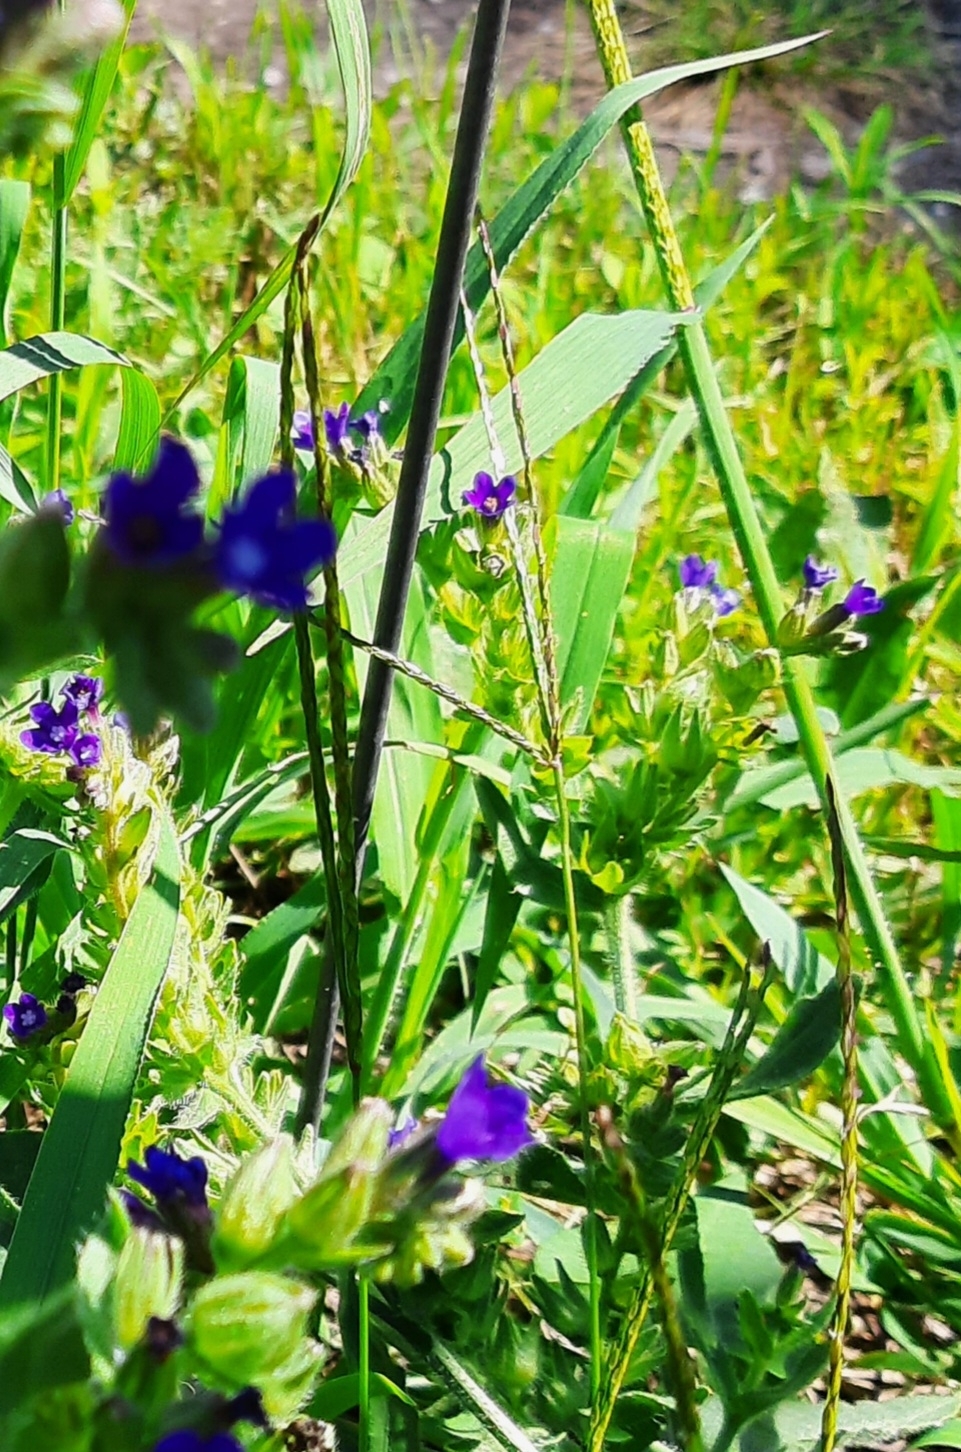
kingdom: Plantae
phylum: Tracheophyta
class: Magnoliopsida
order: Boraginales
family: Boraginaceae
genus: Anchusa
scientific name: Anchusa officinalis
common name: Alkanet
